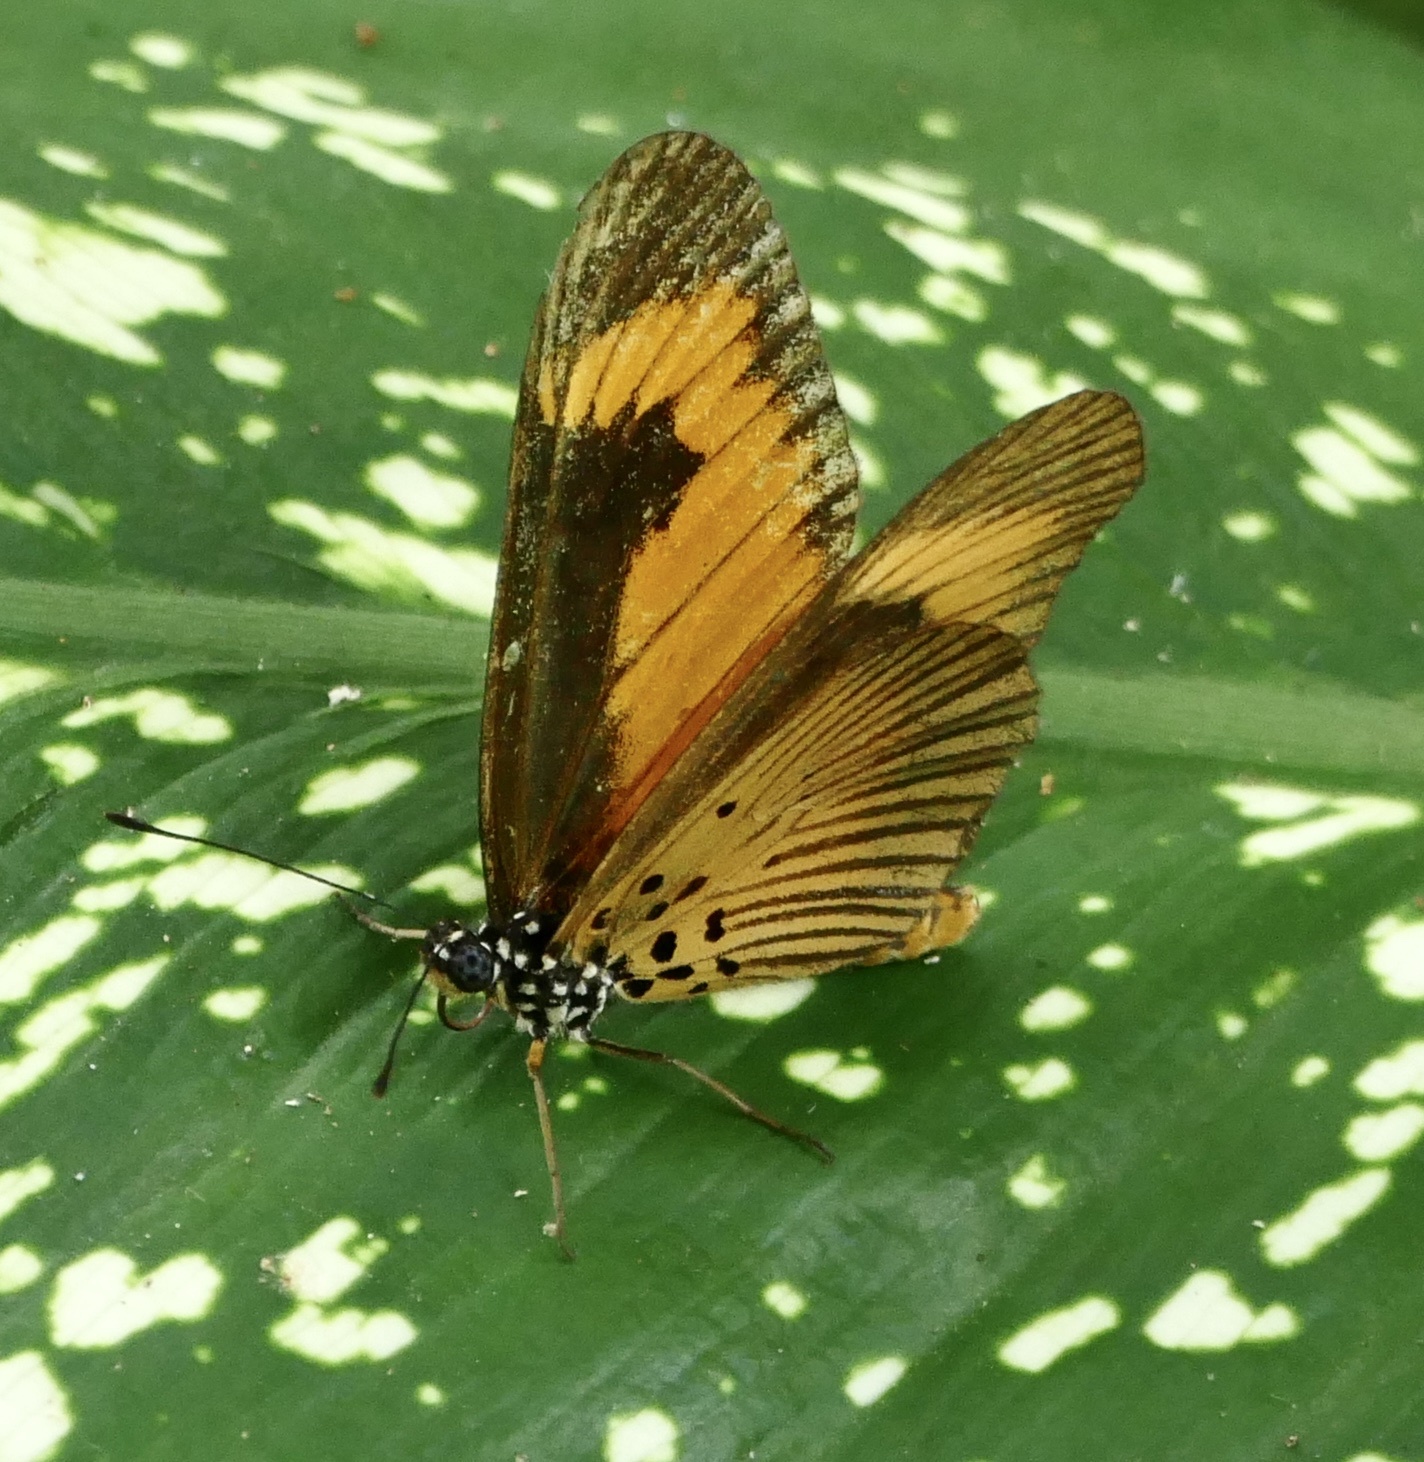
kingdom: Animalia
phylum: Arthropoda
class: Insecta
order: Lepidoptera
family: Nymphalidae
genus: Acraea
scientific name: Acraea Telchinia alciope
